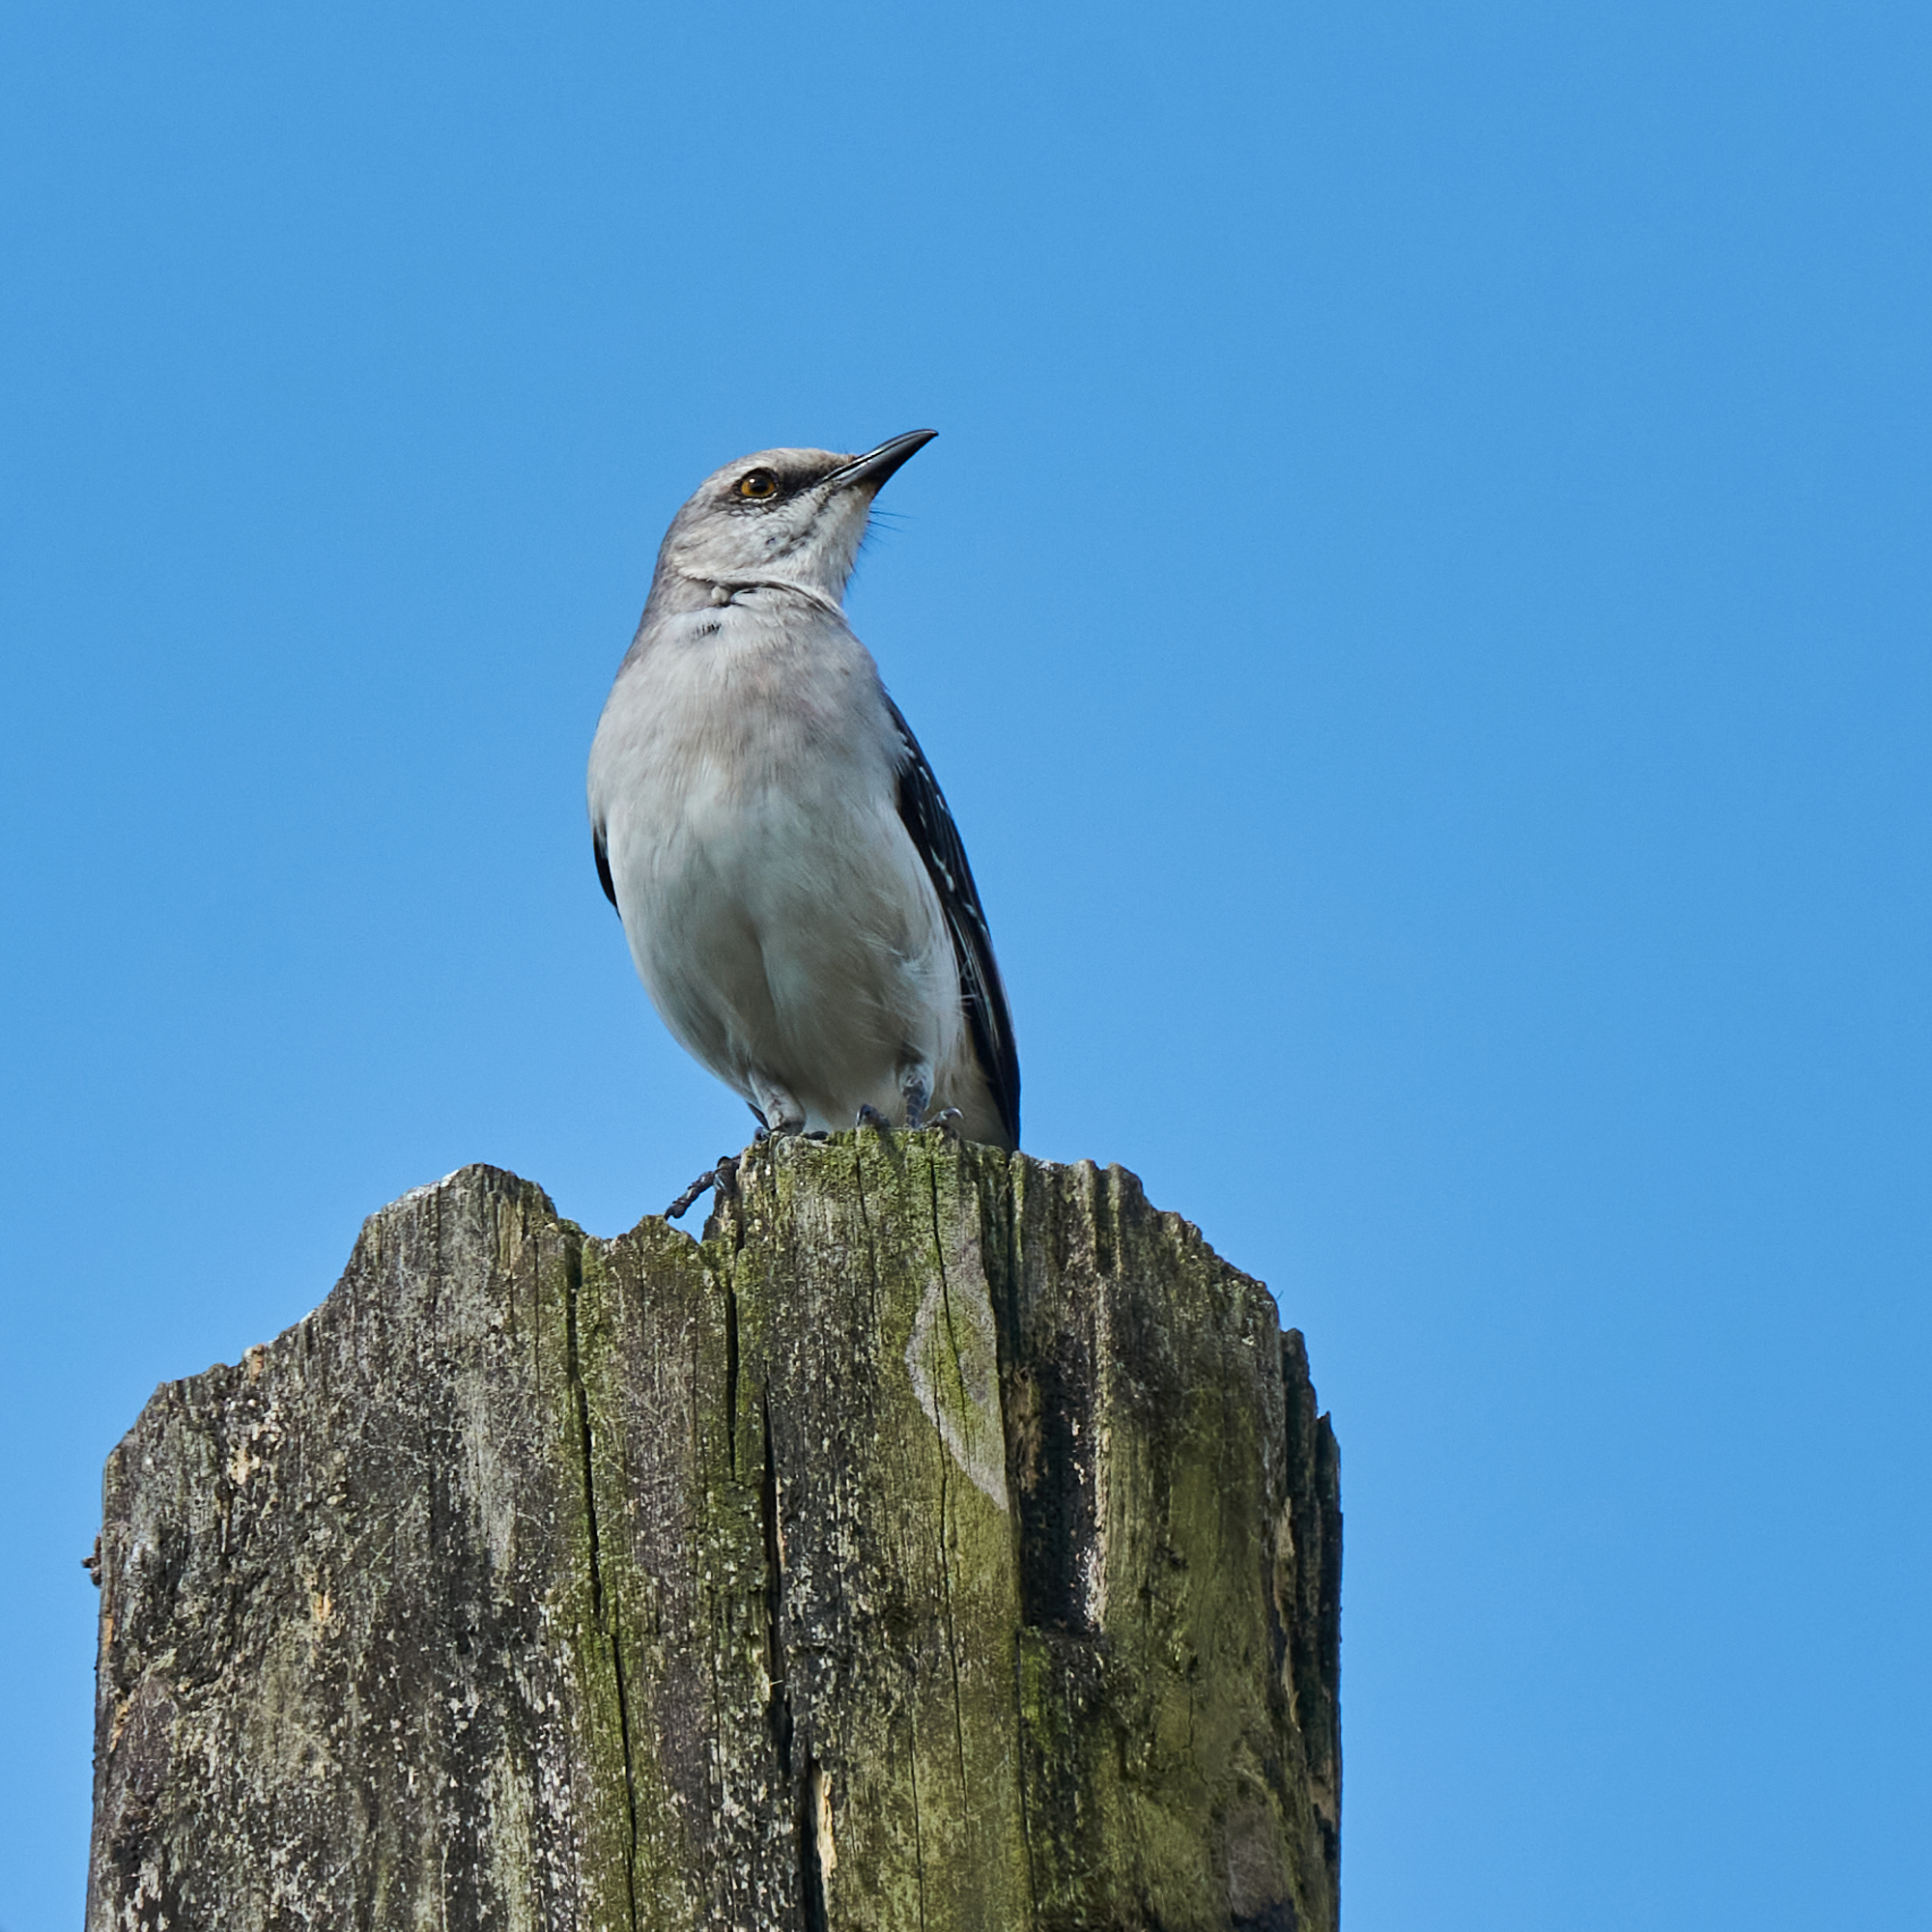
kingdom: Animalia
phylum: Chordata
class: Aves
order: Passeriformes
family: Mimidae
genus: Mimus
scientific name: Mimus gilvus
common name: Tropical mockingbird
